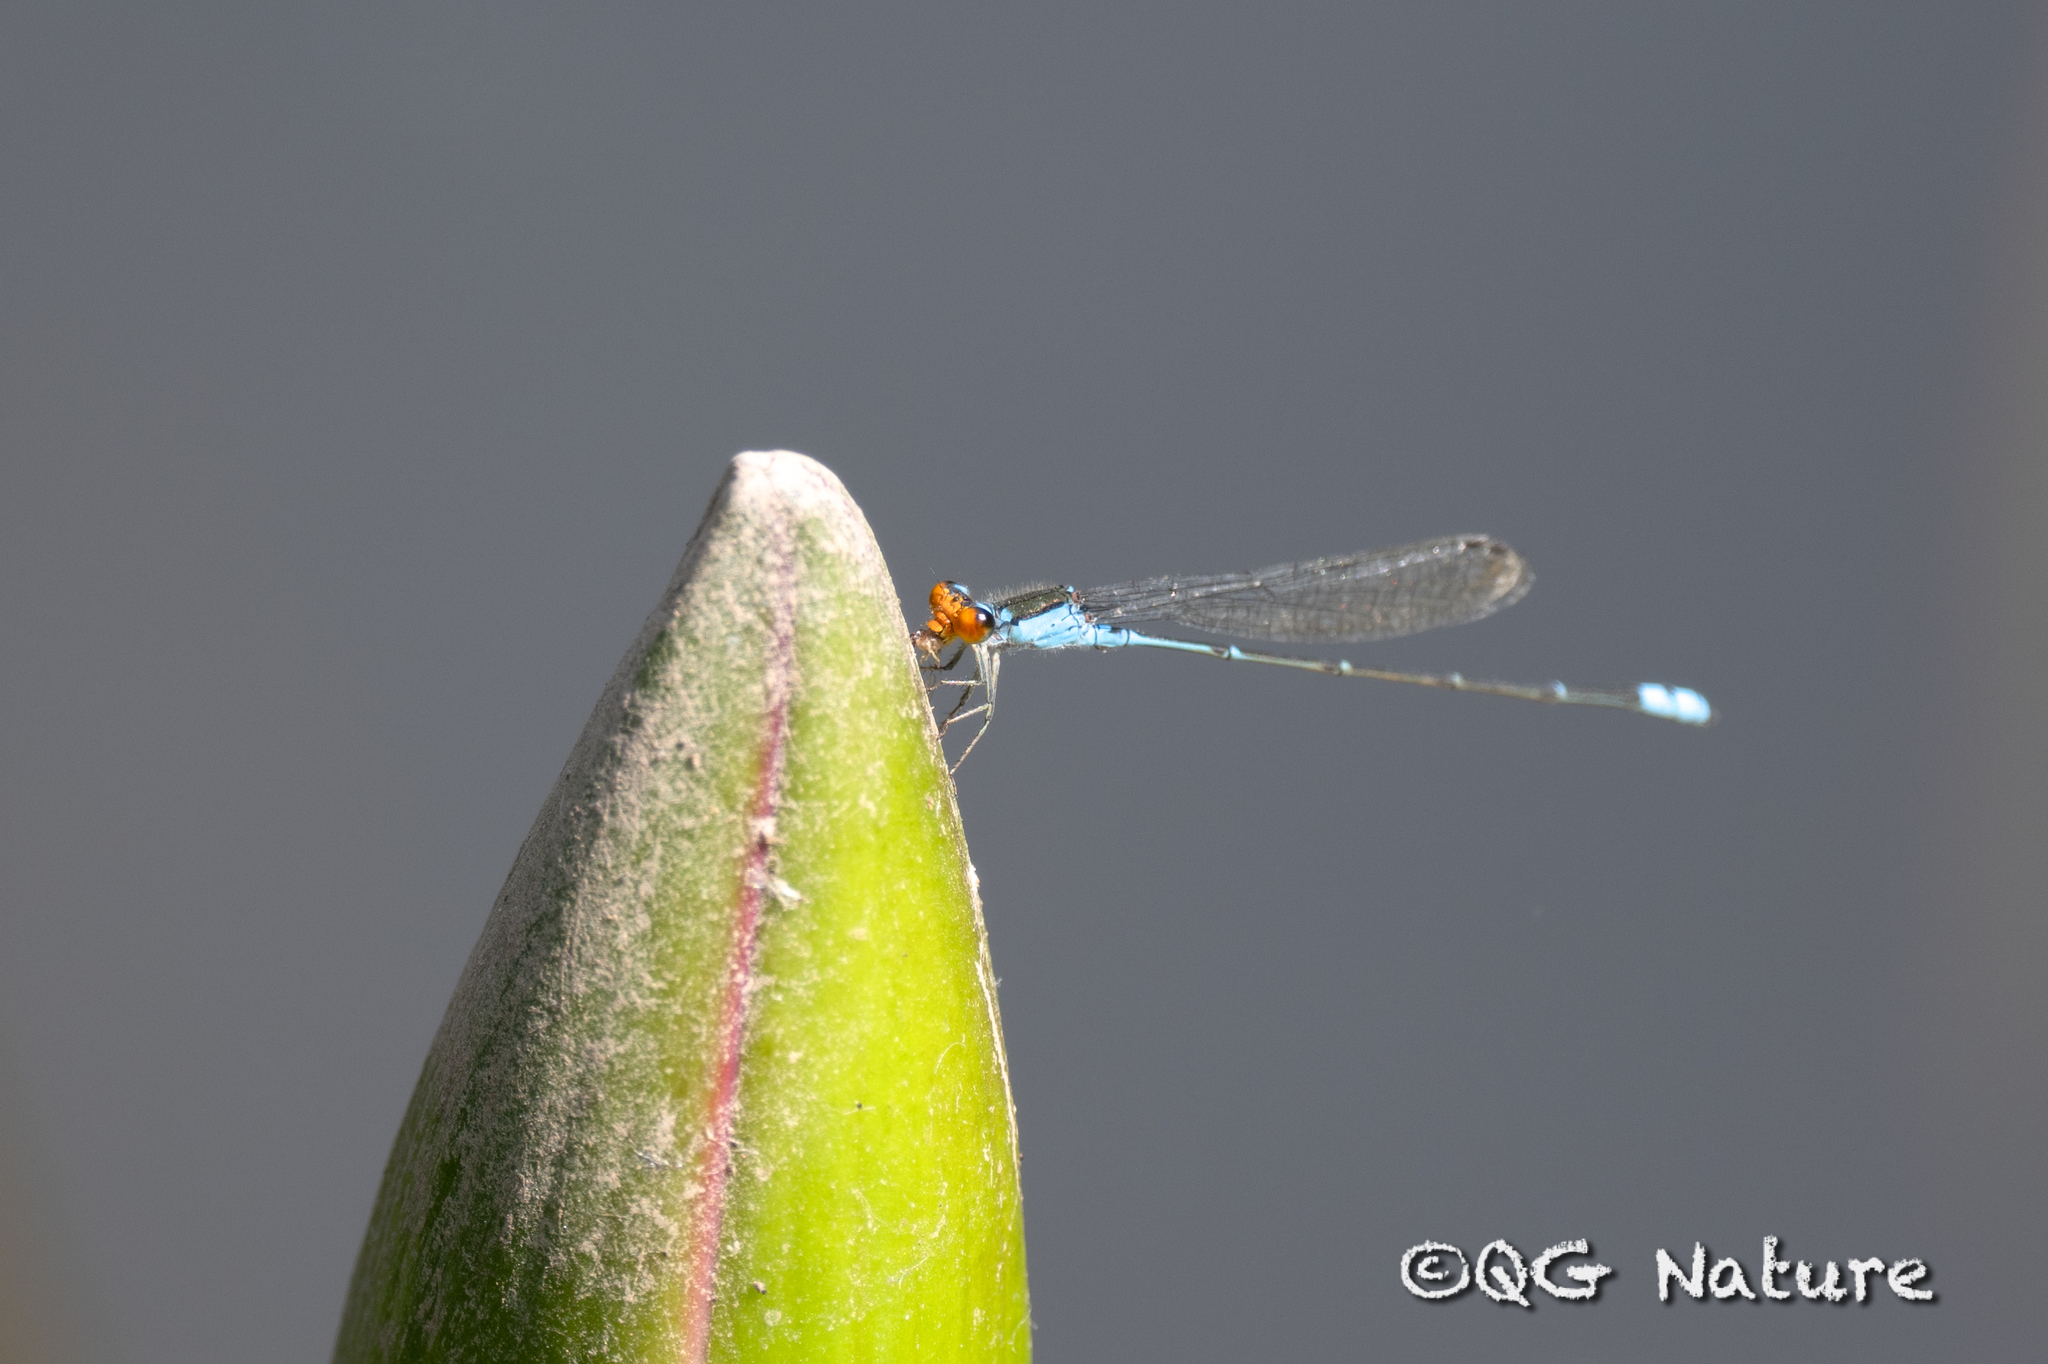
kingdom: Animalia
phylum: Arthropoda
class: Insecta
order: Odonata
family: Coenagrionidae
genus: Pseudagrion
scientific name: Pseudagrion rubriceps
